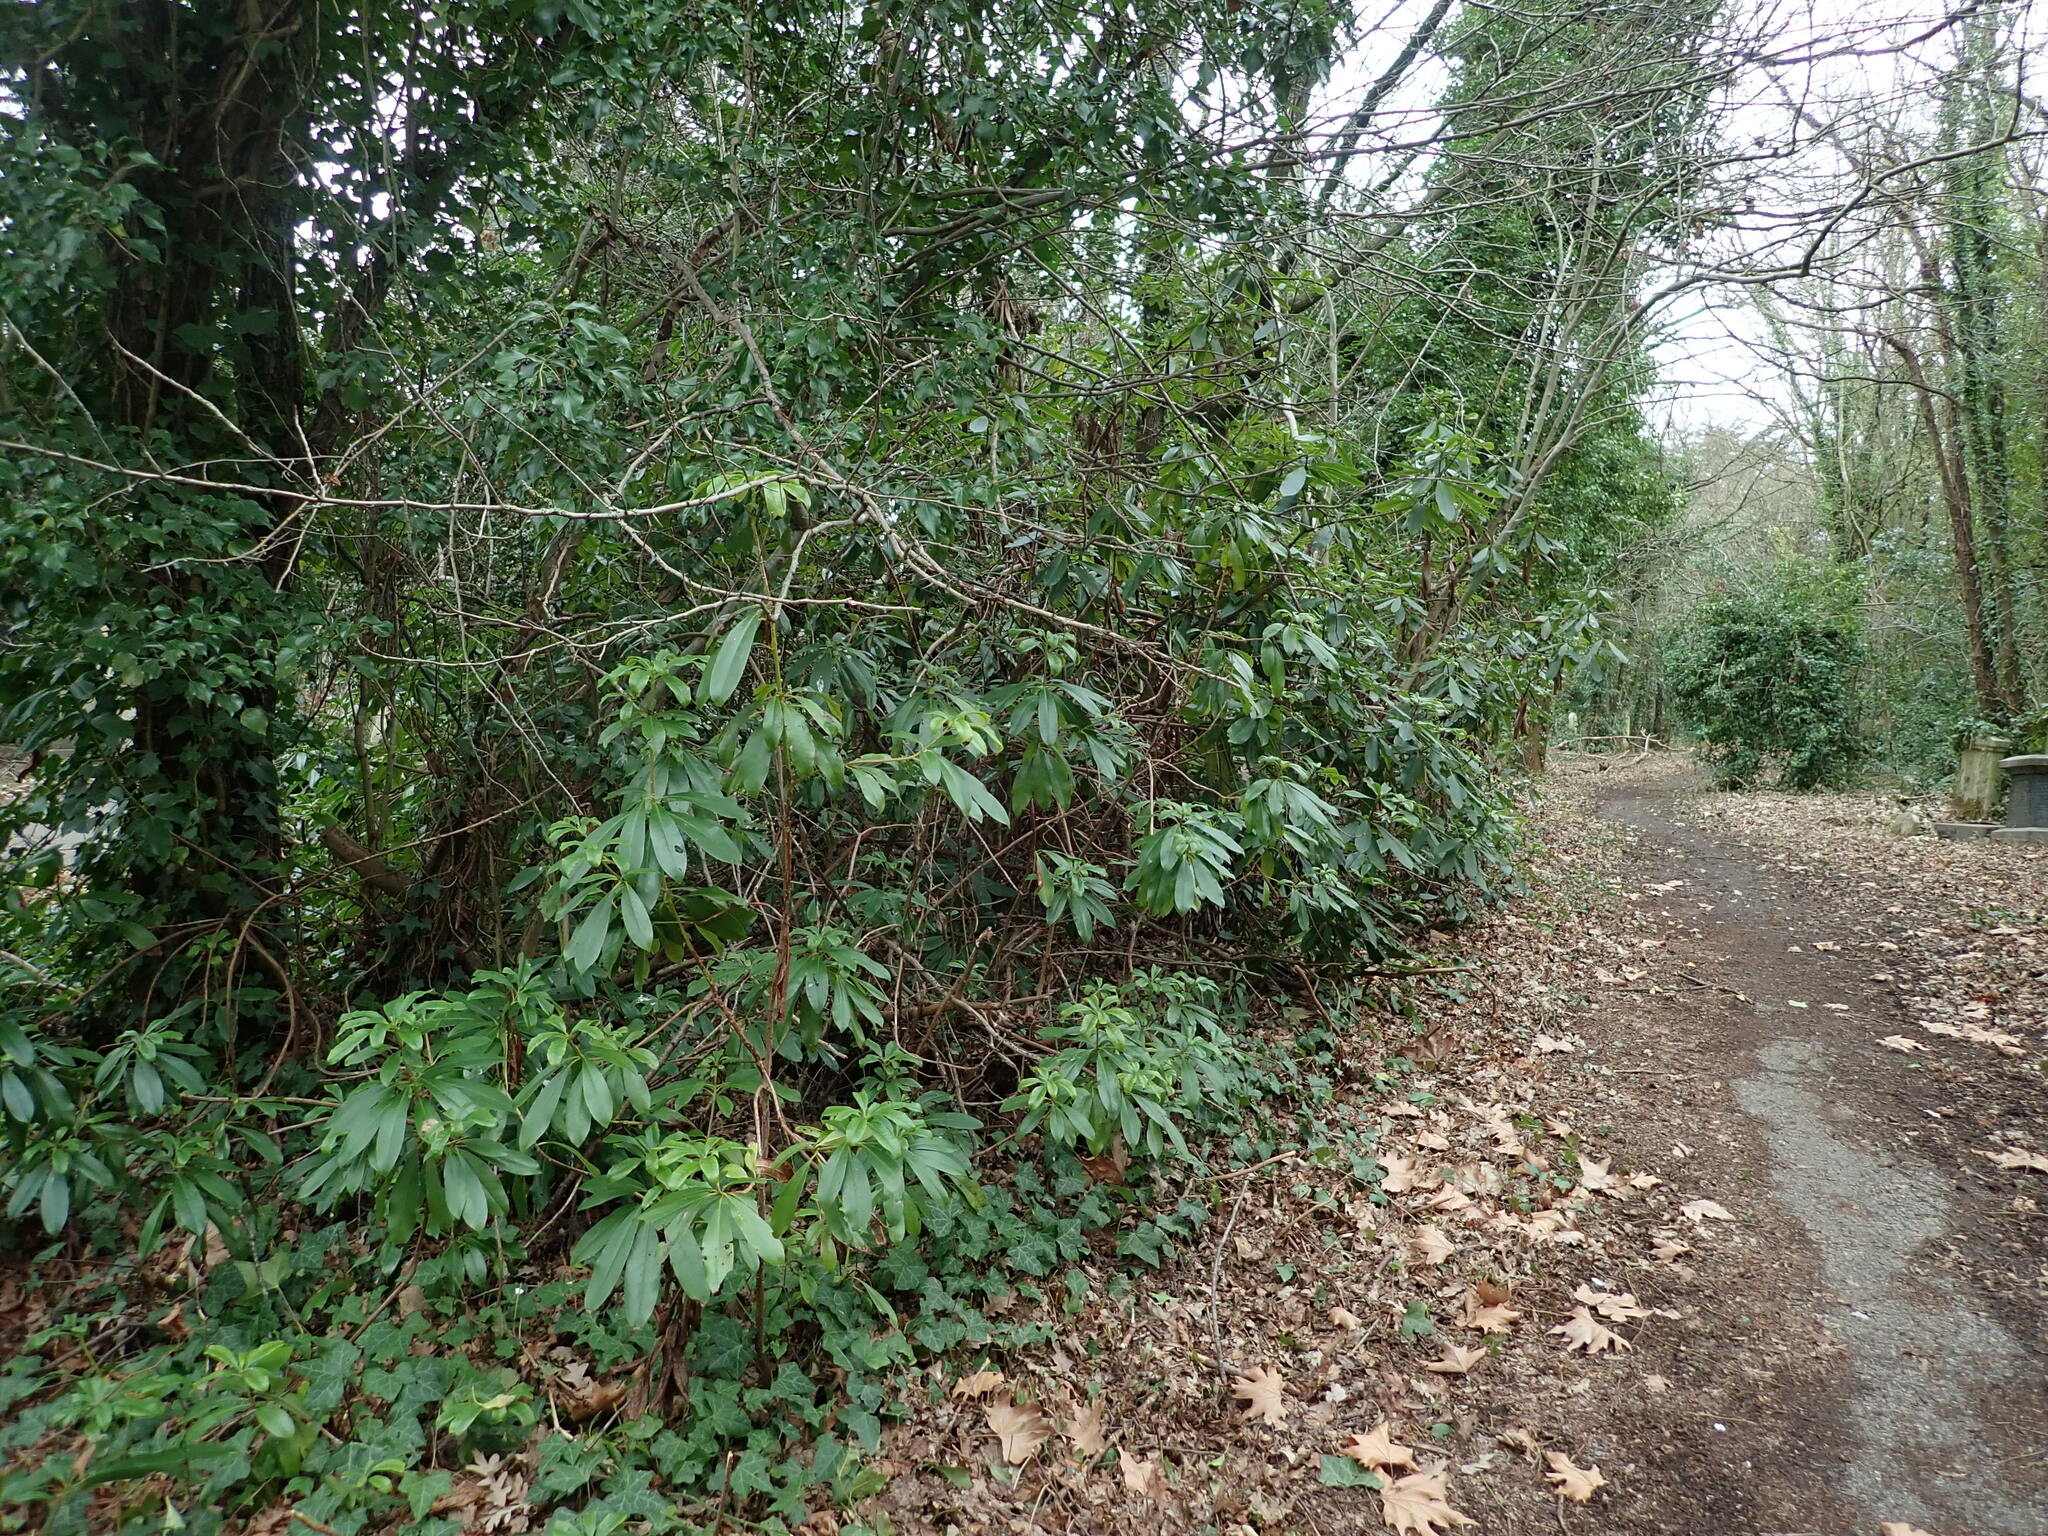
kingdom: Plantae
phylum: Tracheophyta
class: Magnoliopsida
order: Ericales
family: Ericaceae
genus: Rhododendron
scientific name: Rhododendron ponticum
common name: Rhododendron
